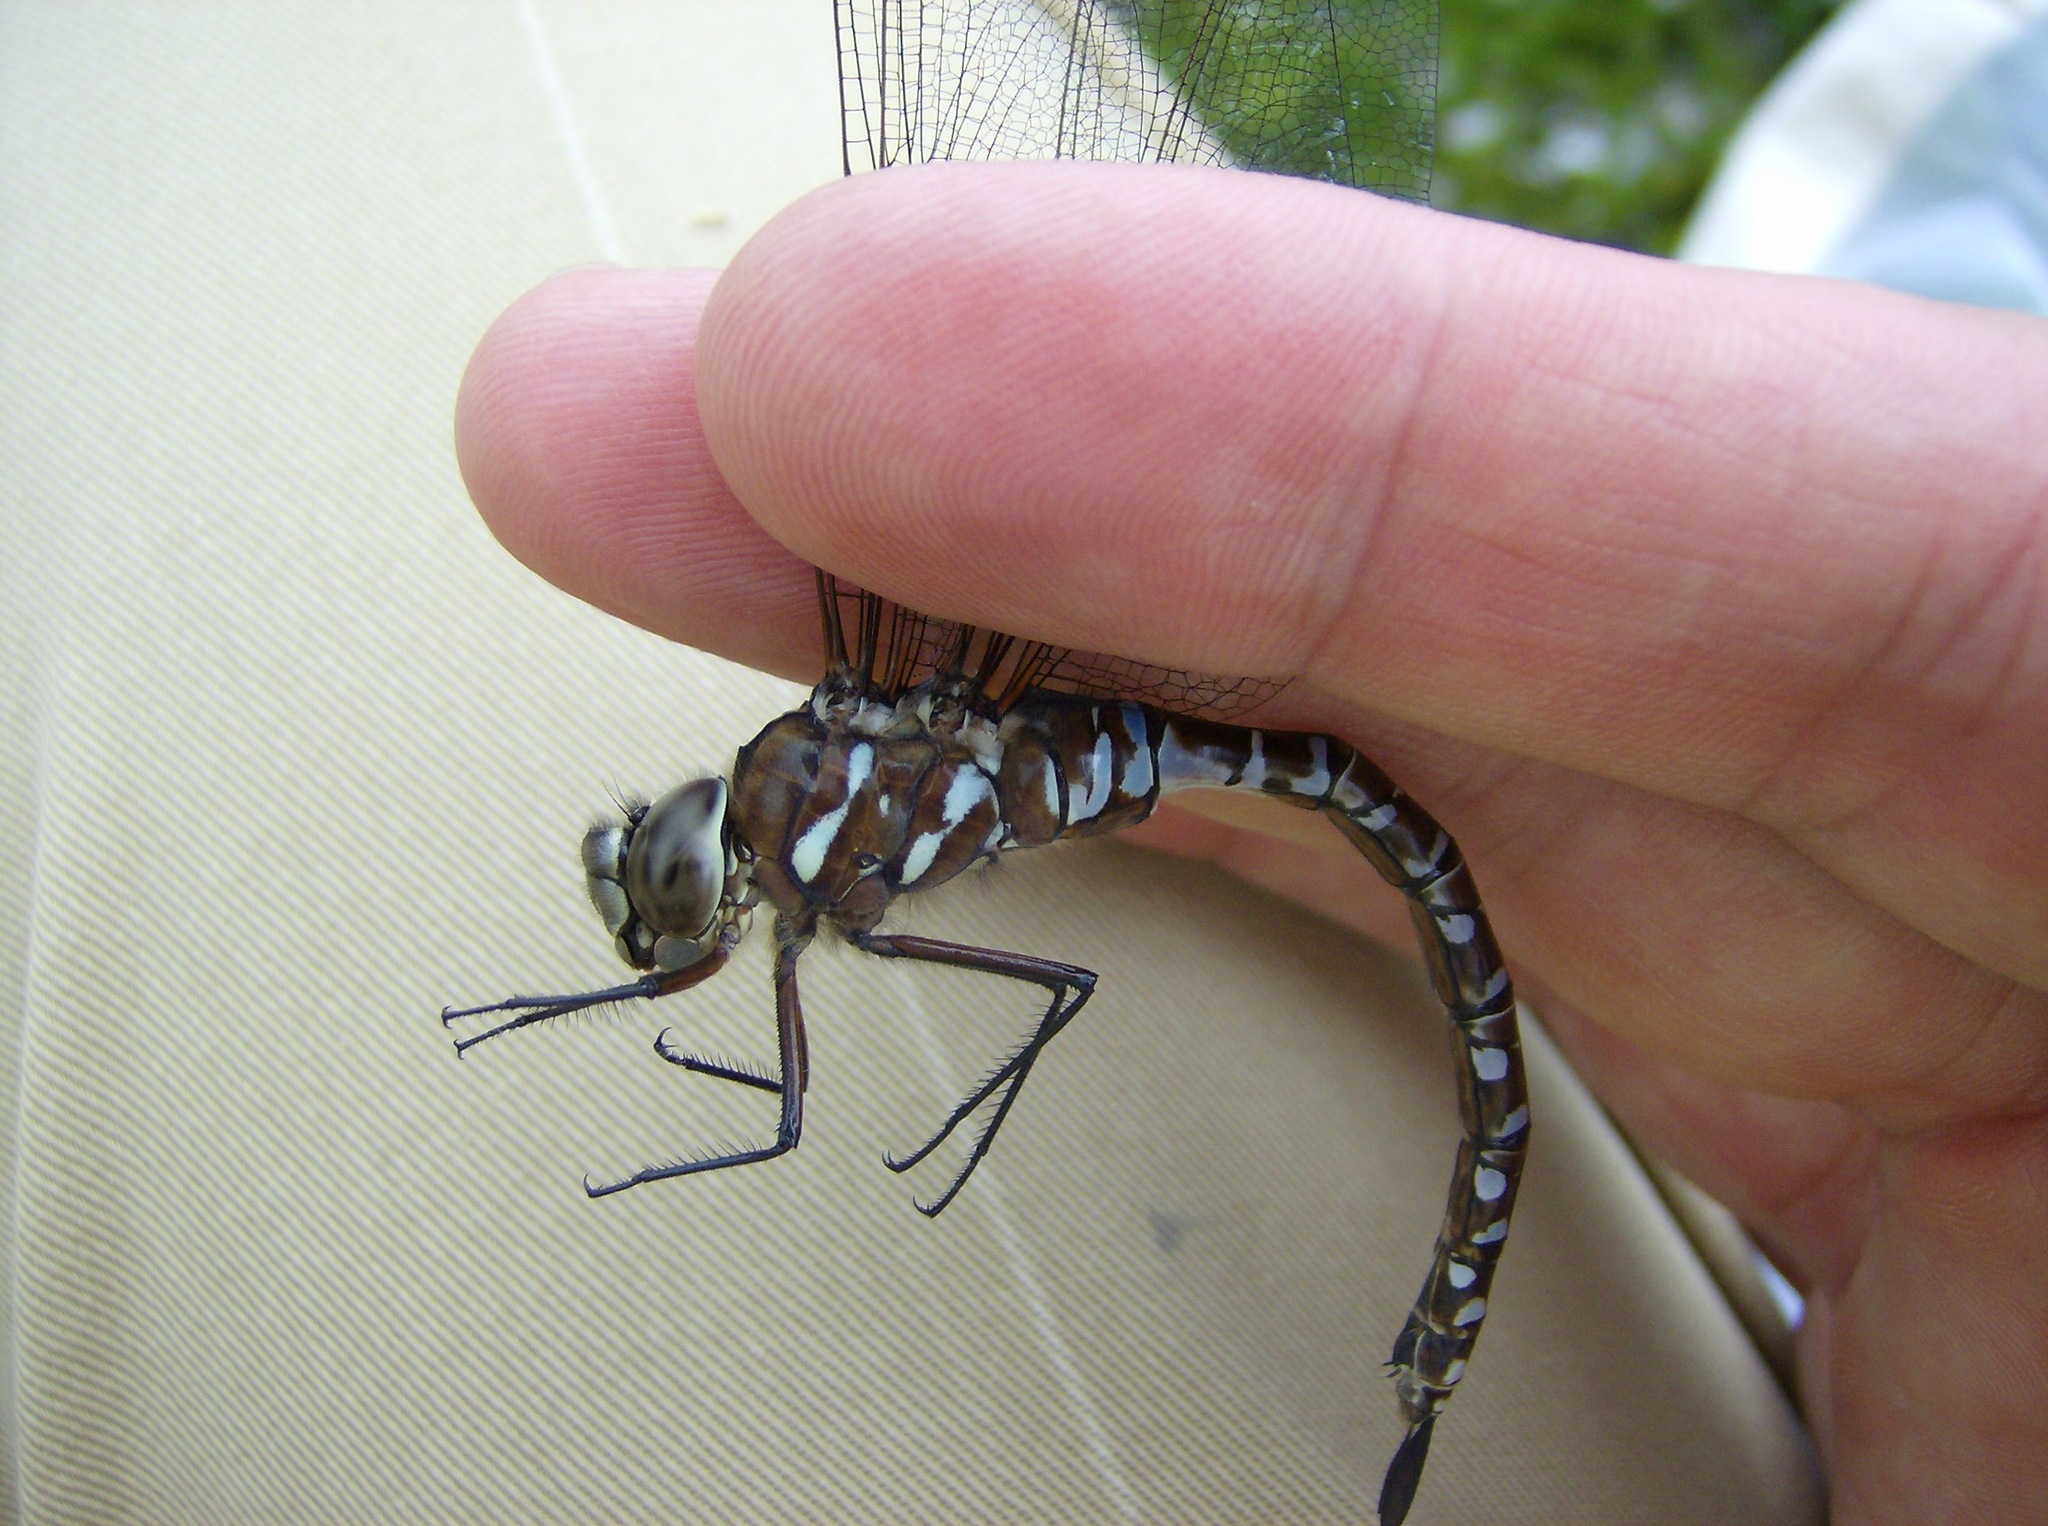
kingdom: Animalia
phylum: Arthropoda
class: Insecta
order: Odonata
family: Aeshnidae
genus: Aeshna
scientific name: Aeshna interrupta
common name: Variable darner
